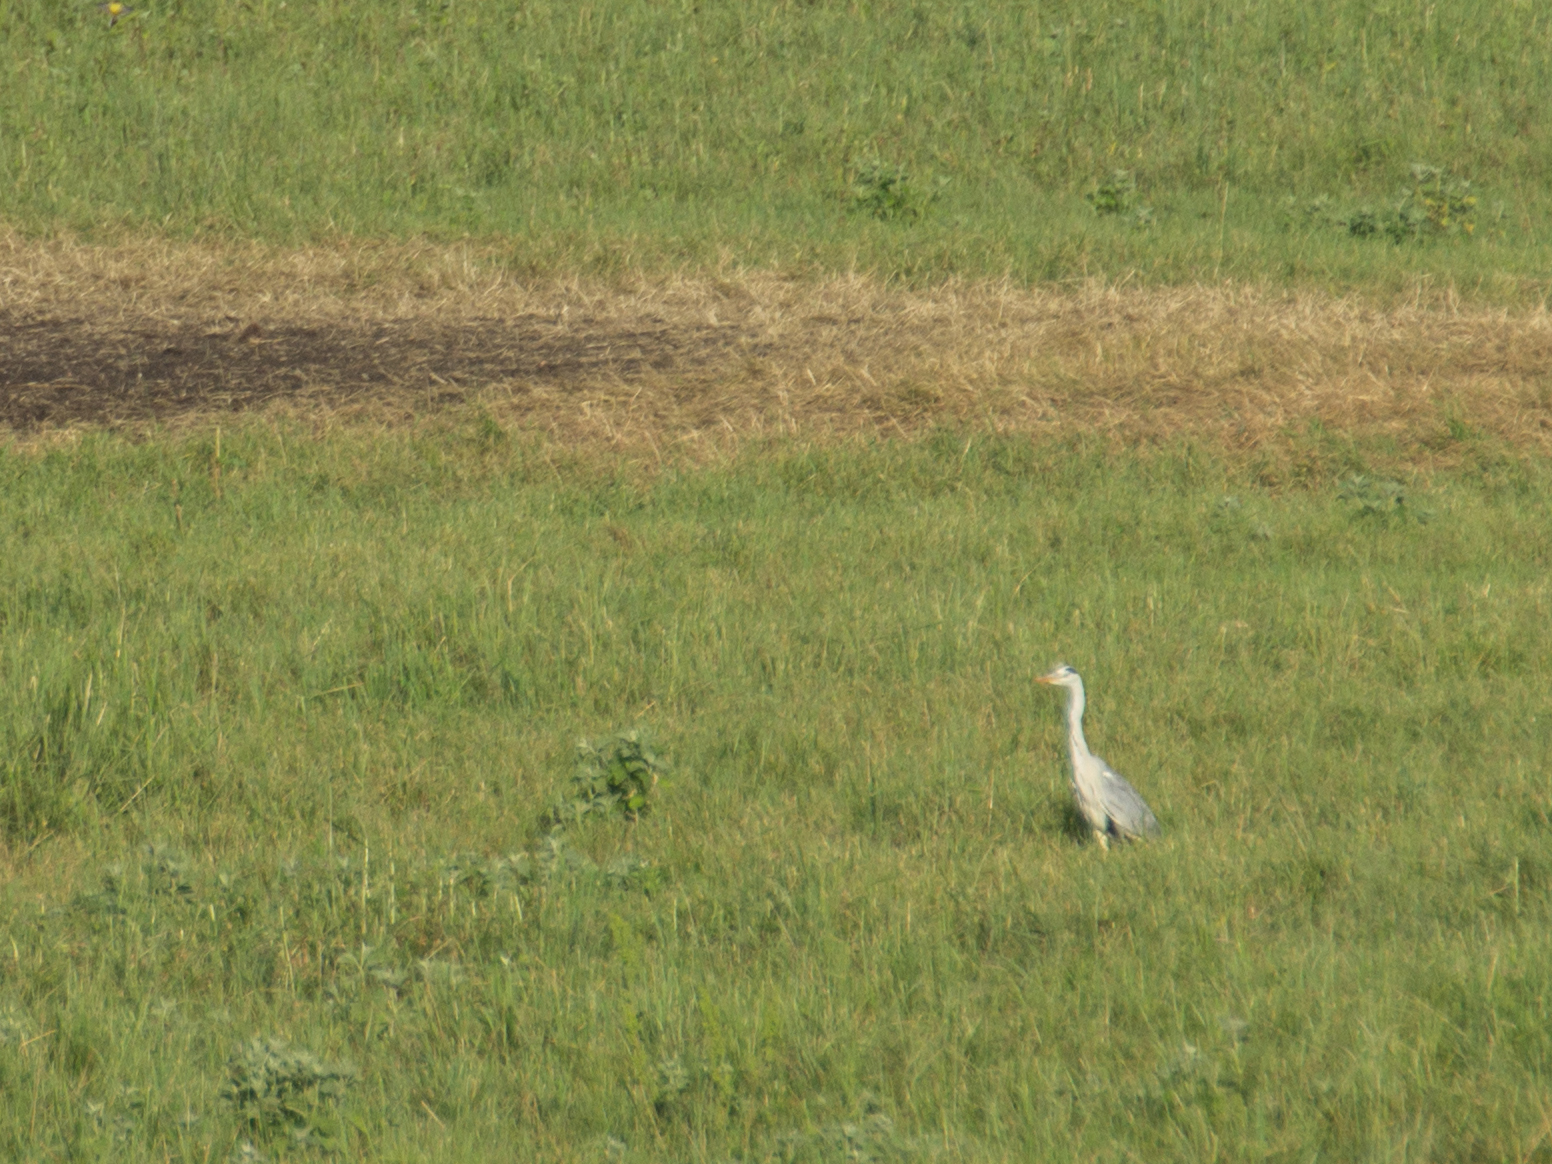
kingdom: Animalia
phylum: Chordata
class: Aves
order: Pelecaniformes
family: Ardeidae
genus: Ardea
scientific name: Ardea cinerea
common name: Grey heron
